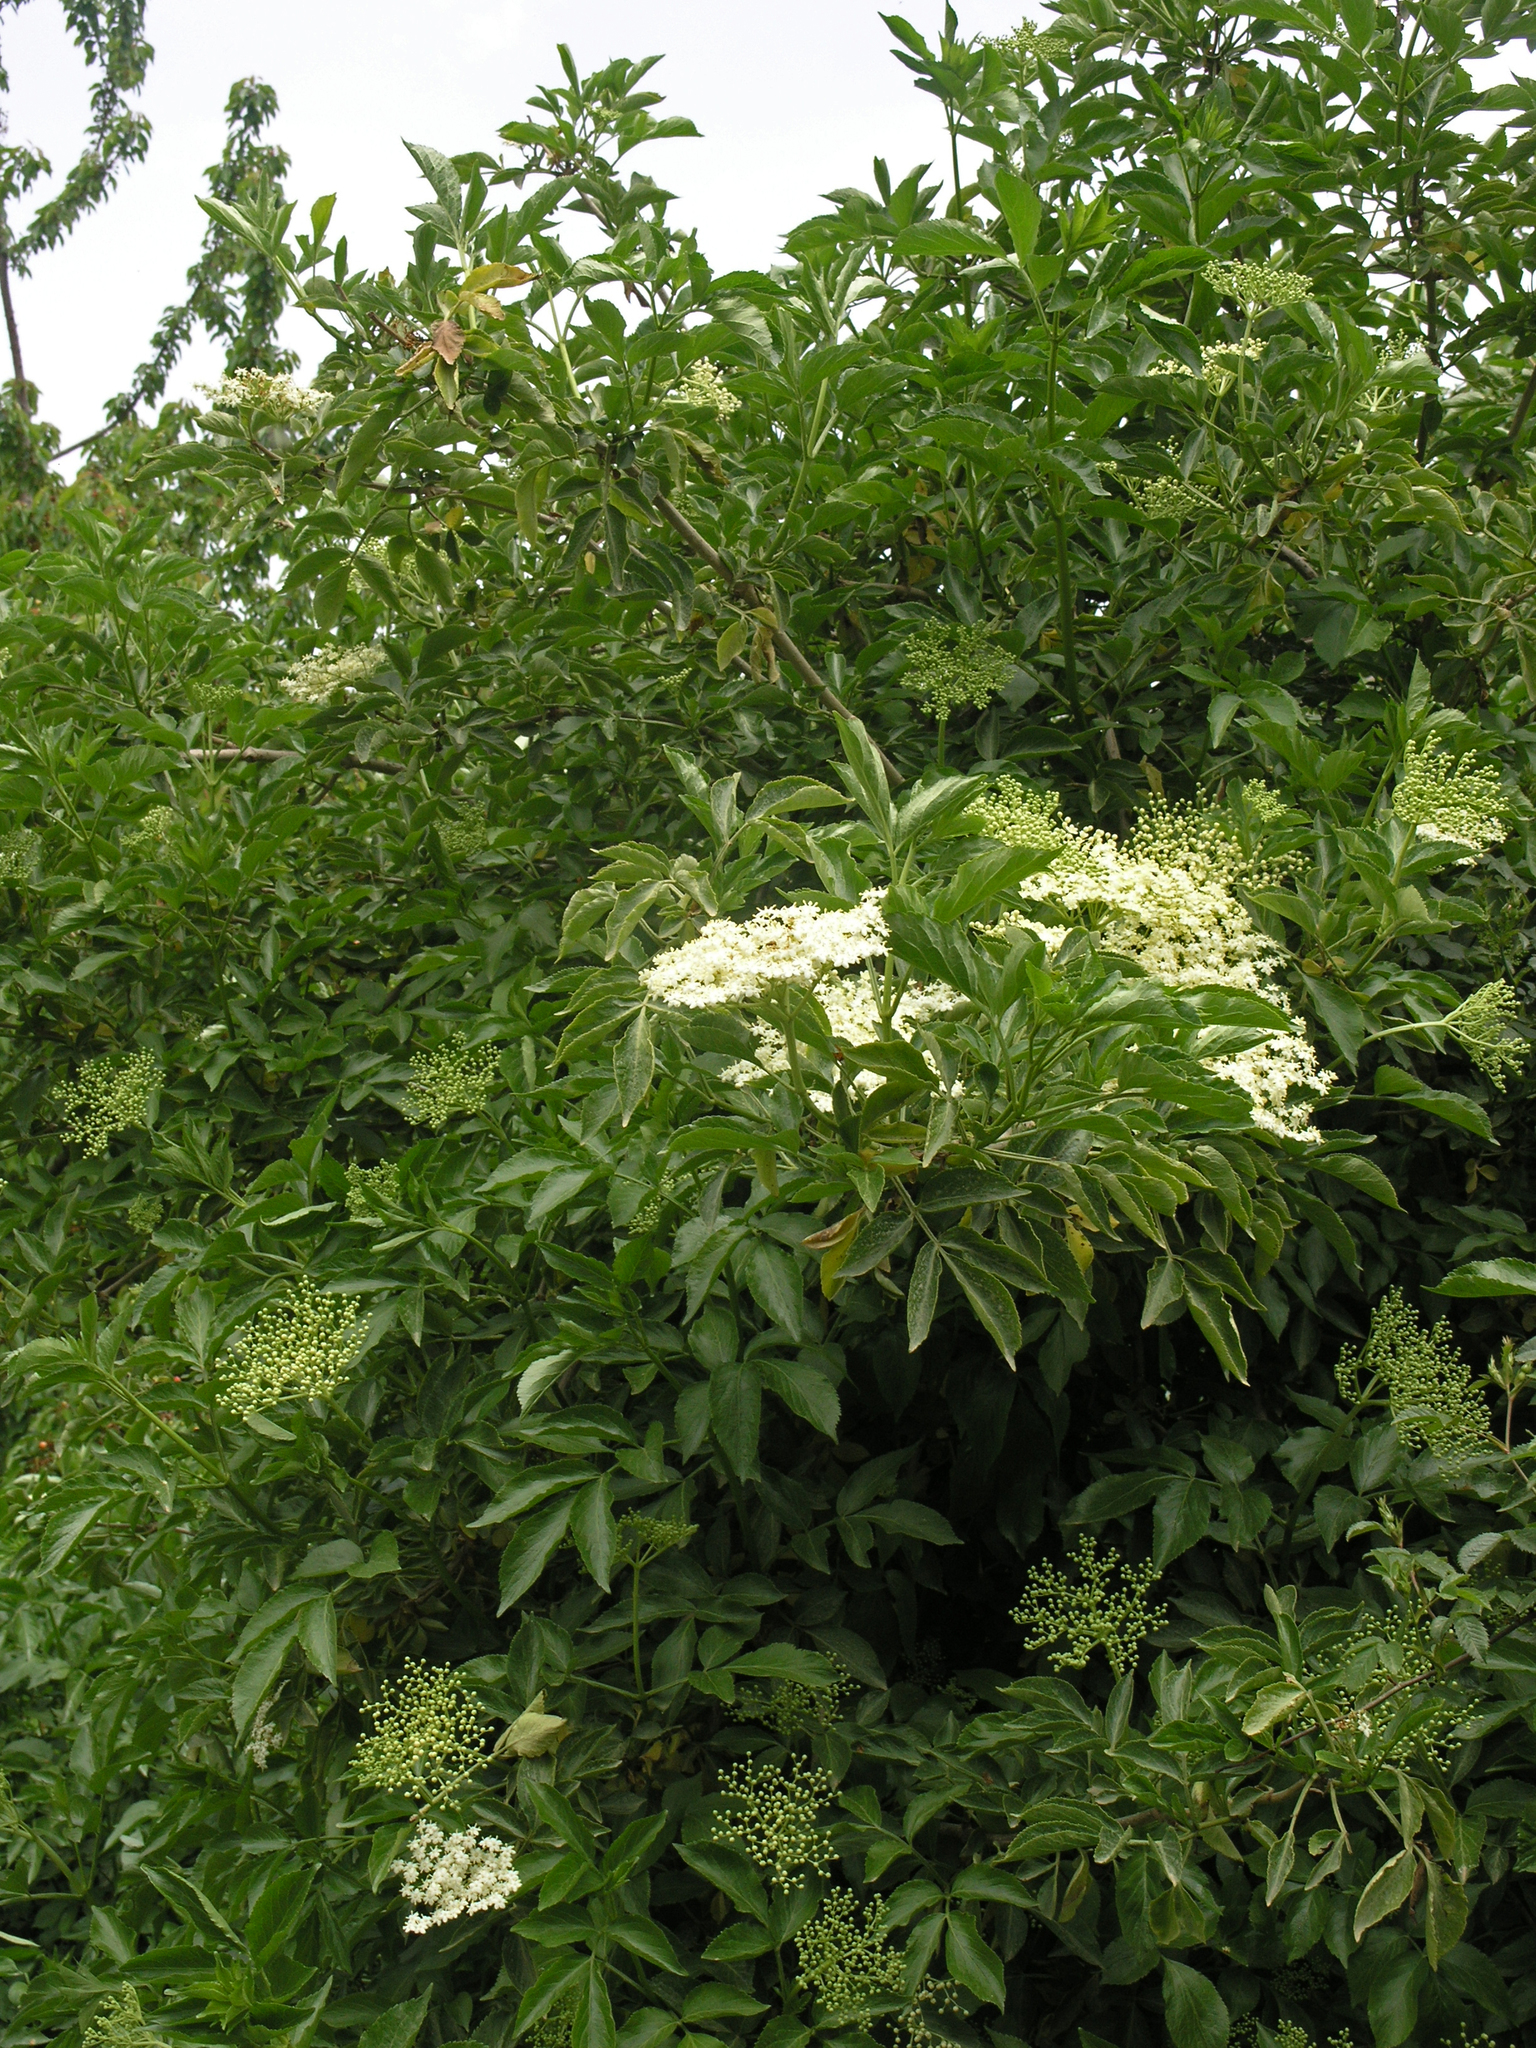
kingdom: Plantae
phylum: Tracheophyta
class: Magnoliopsida
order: Dipsacales
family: Viburnaceae
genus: Sambucus
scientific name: Sambucus nigra
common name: Elder
